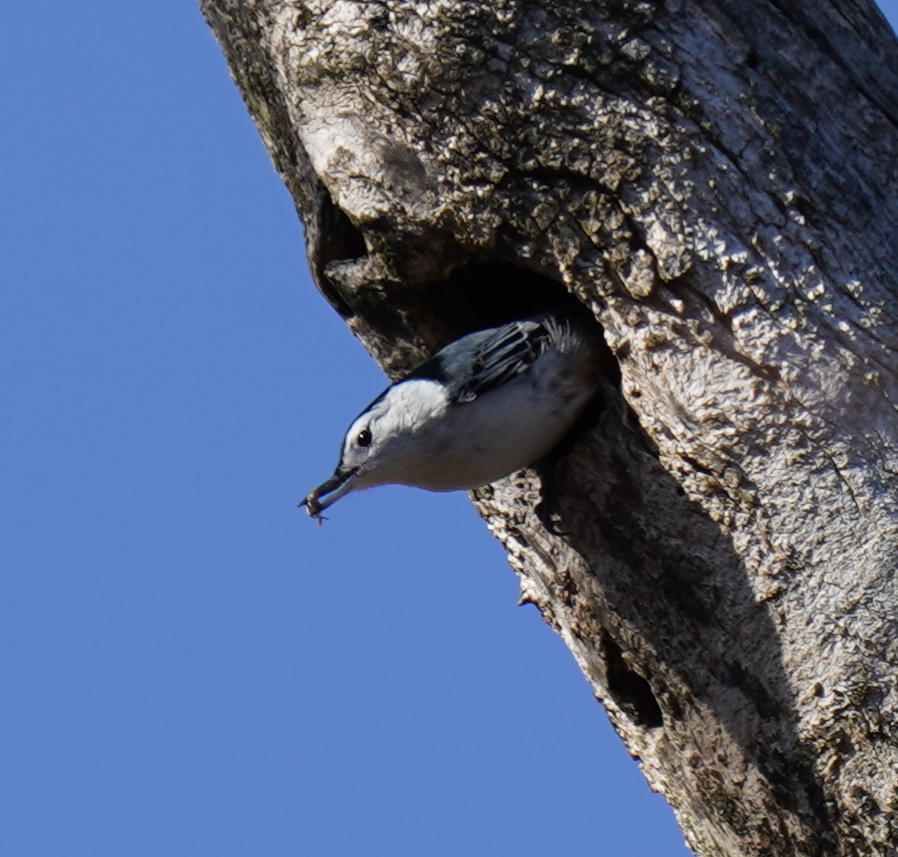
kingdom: Animalia
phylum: Chordata
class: Aves
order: Passeriformes
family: Sittidae
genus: Sitta
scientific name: Sitta carolinensis
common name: White-breasted nuthatch
